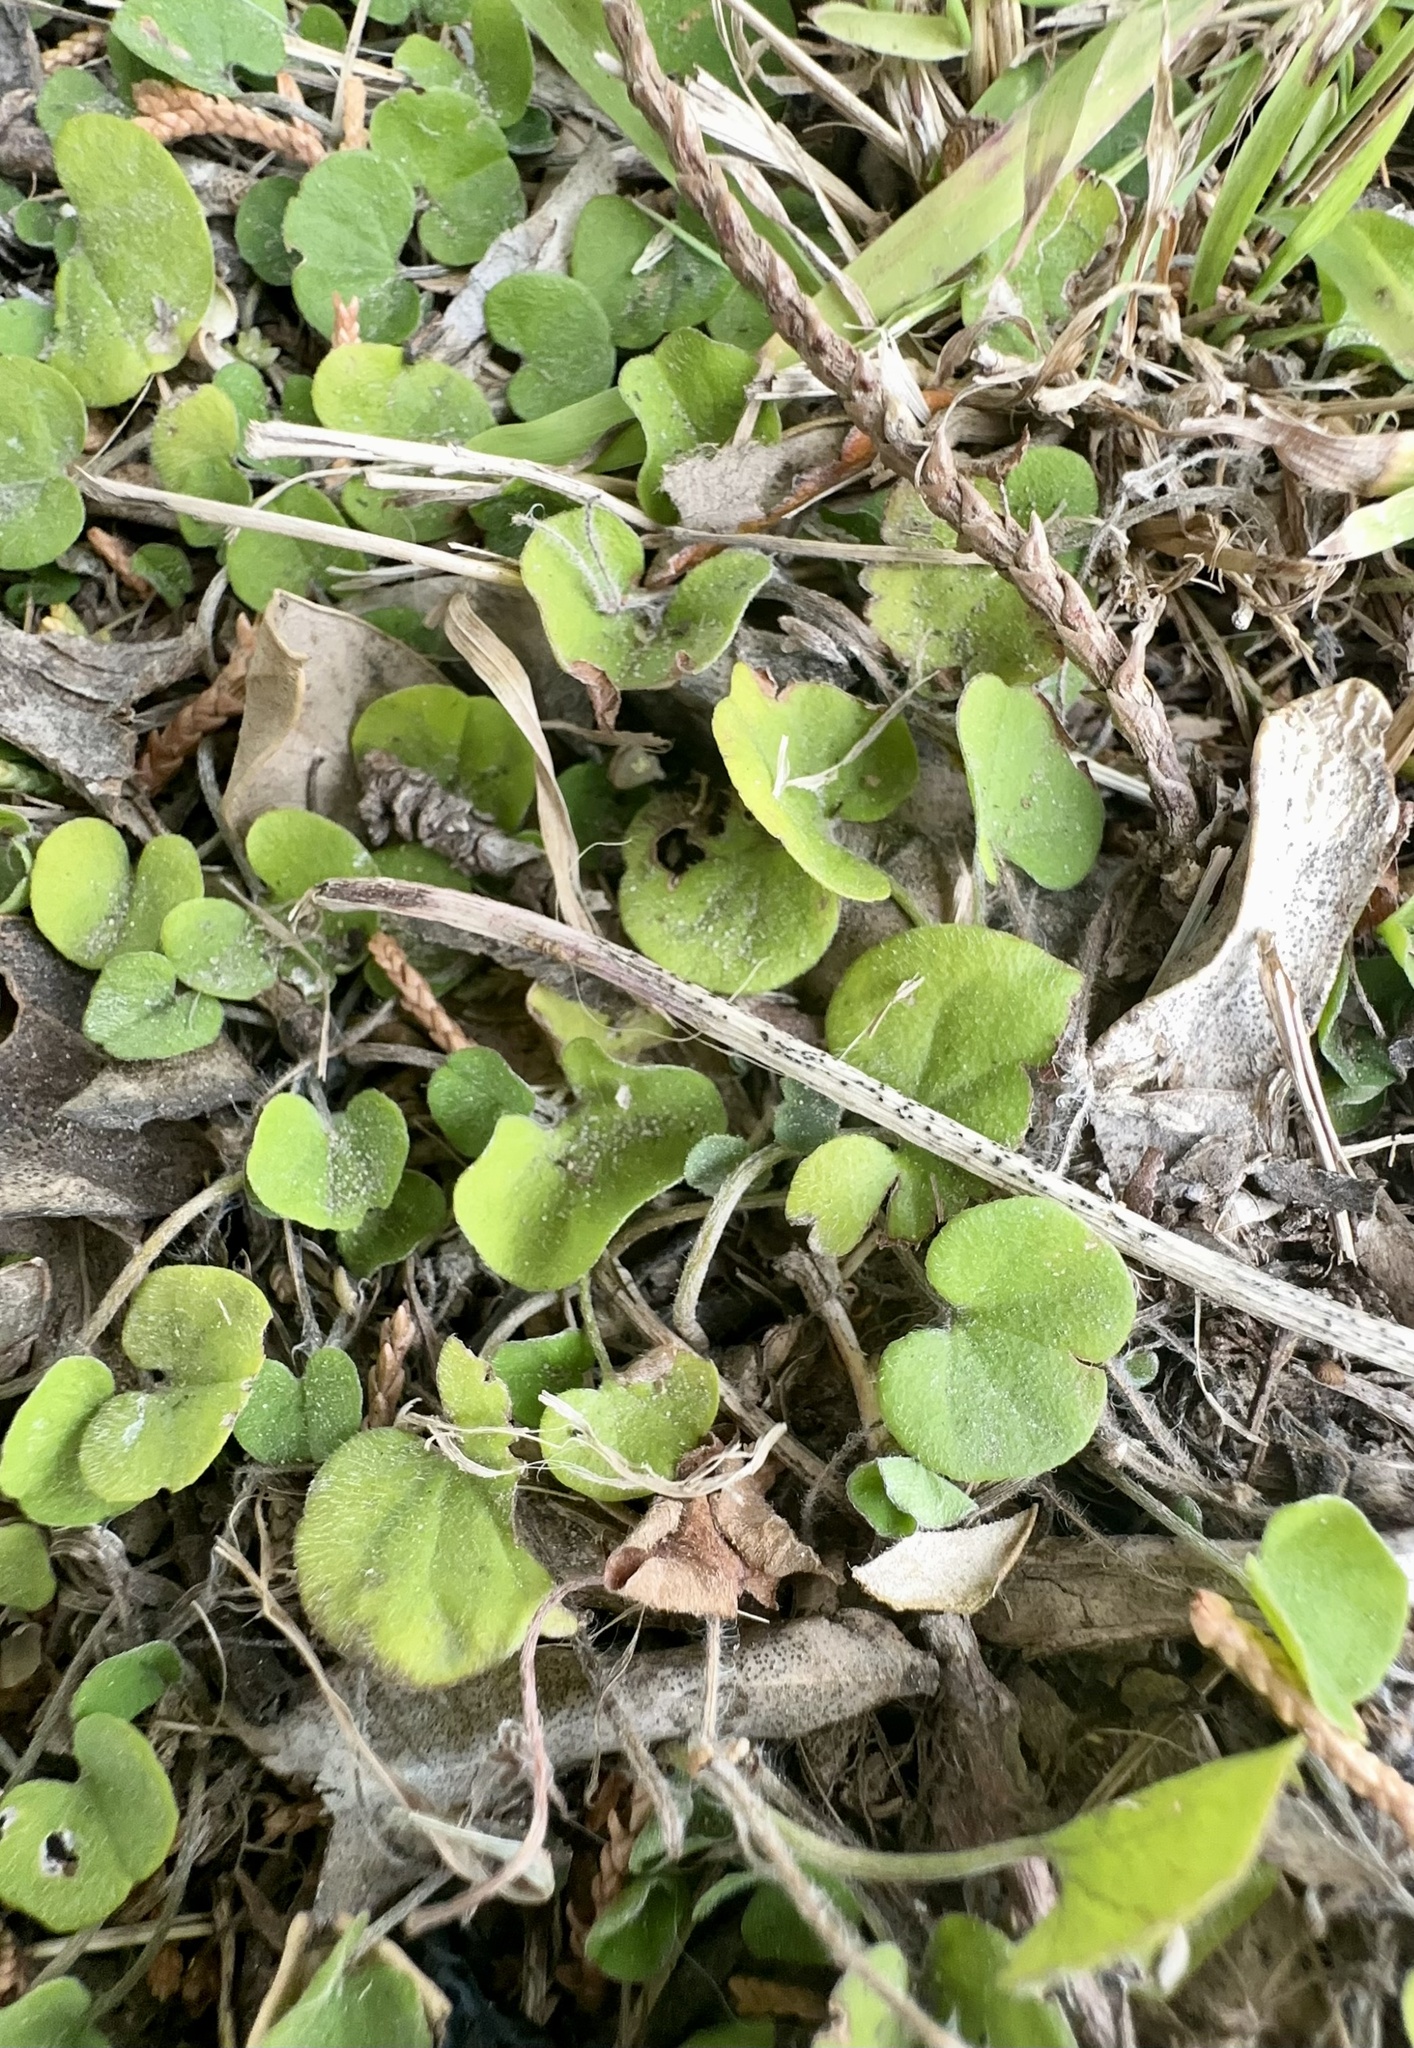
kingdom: Plantae
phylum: Tracheophyta
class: Magnoliopsida
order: Solanales
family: Convolvulaceae
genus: Dichondra
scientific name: Dichondra repens
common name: Kidneyweed
